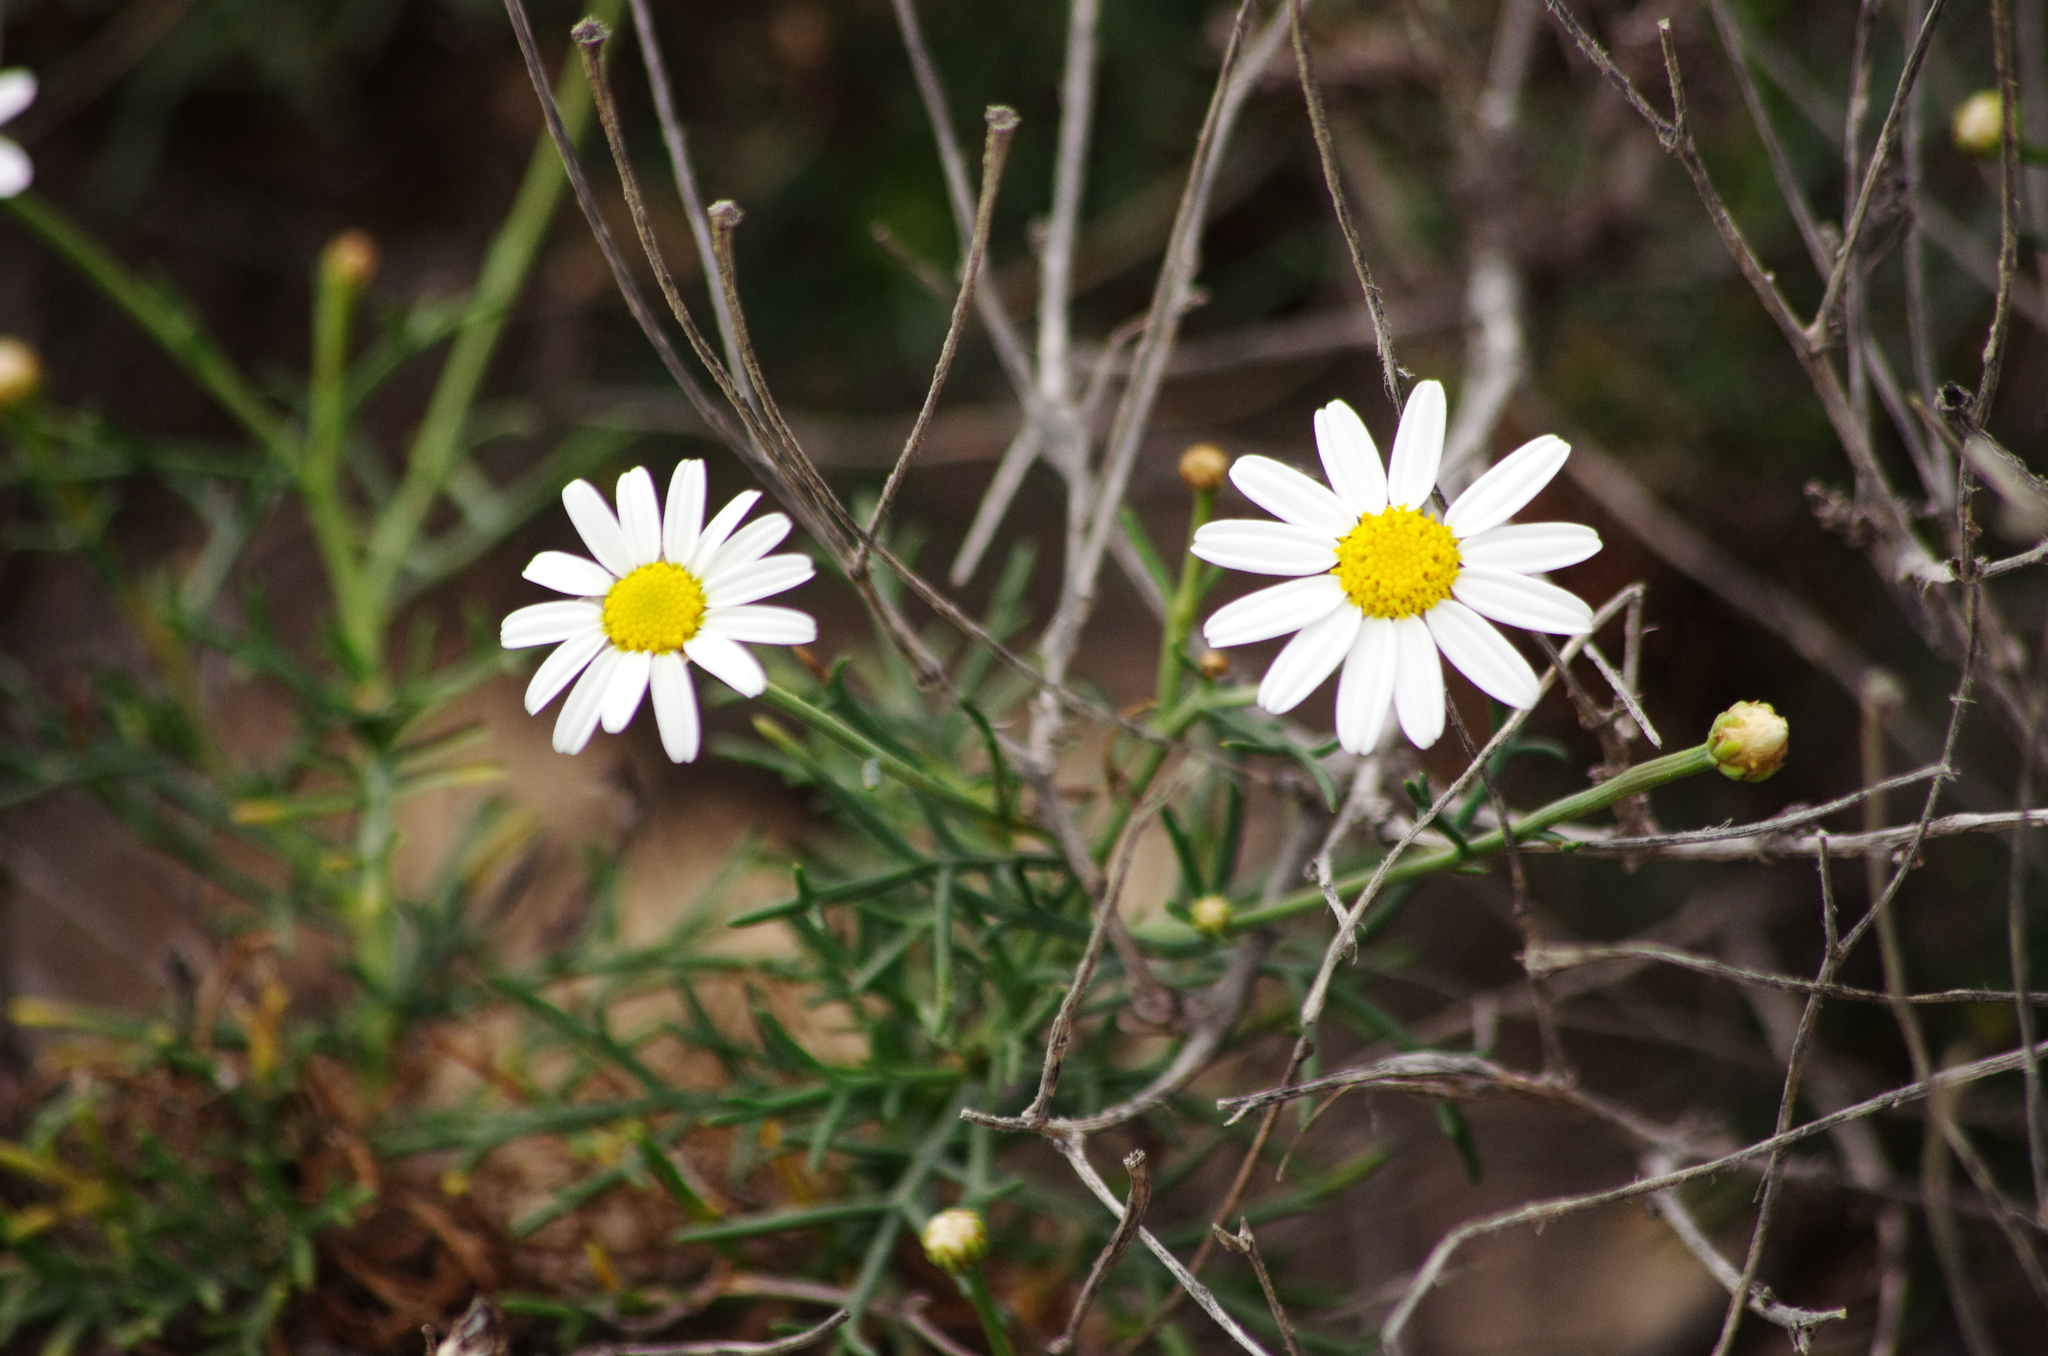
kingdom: Plantae
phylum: Tracheophyta
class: Magnoliopsida
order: Asterales
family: Asteraceae
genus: Argyranthemum
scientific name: Argyranthemum gracile
